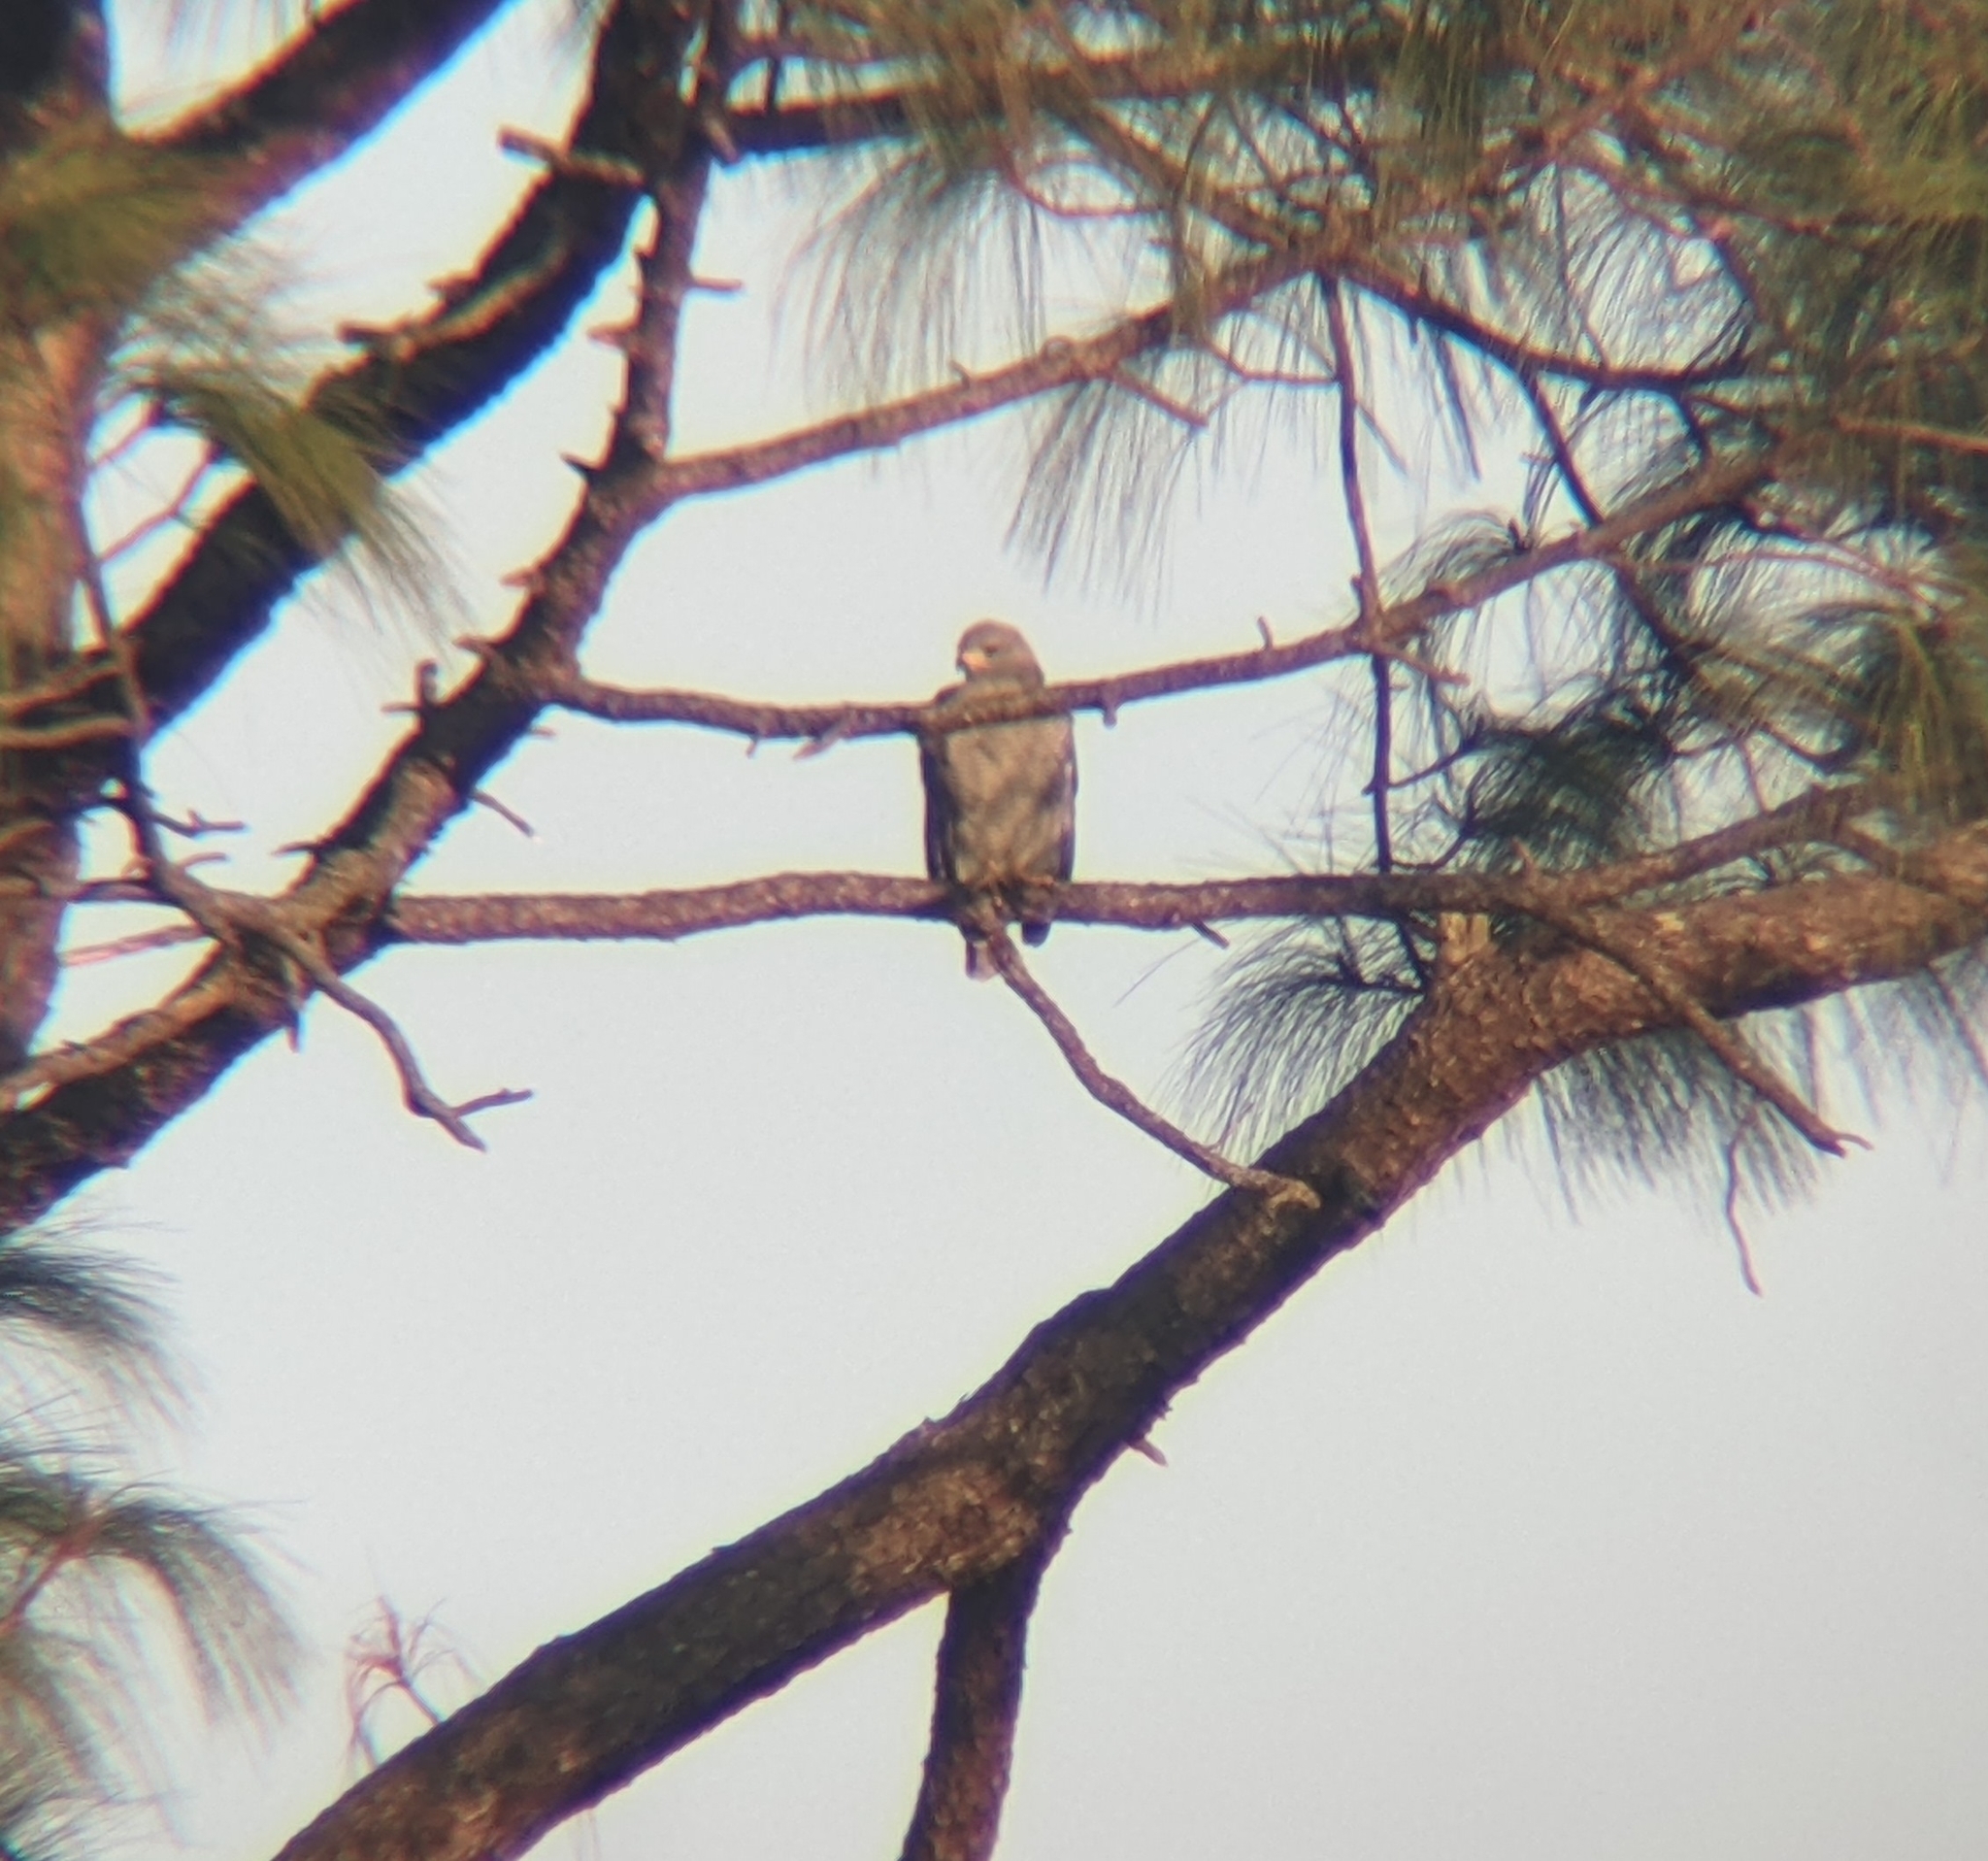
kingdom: Animalia
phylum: Chordata
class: Aves
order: Accipitriformes
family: Accipitridae
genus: Buteo
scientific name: Buteo nitidus
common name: Grey-lined hawk
